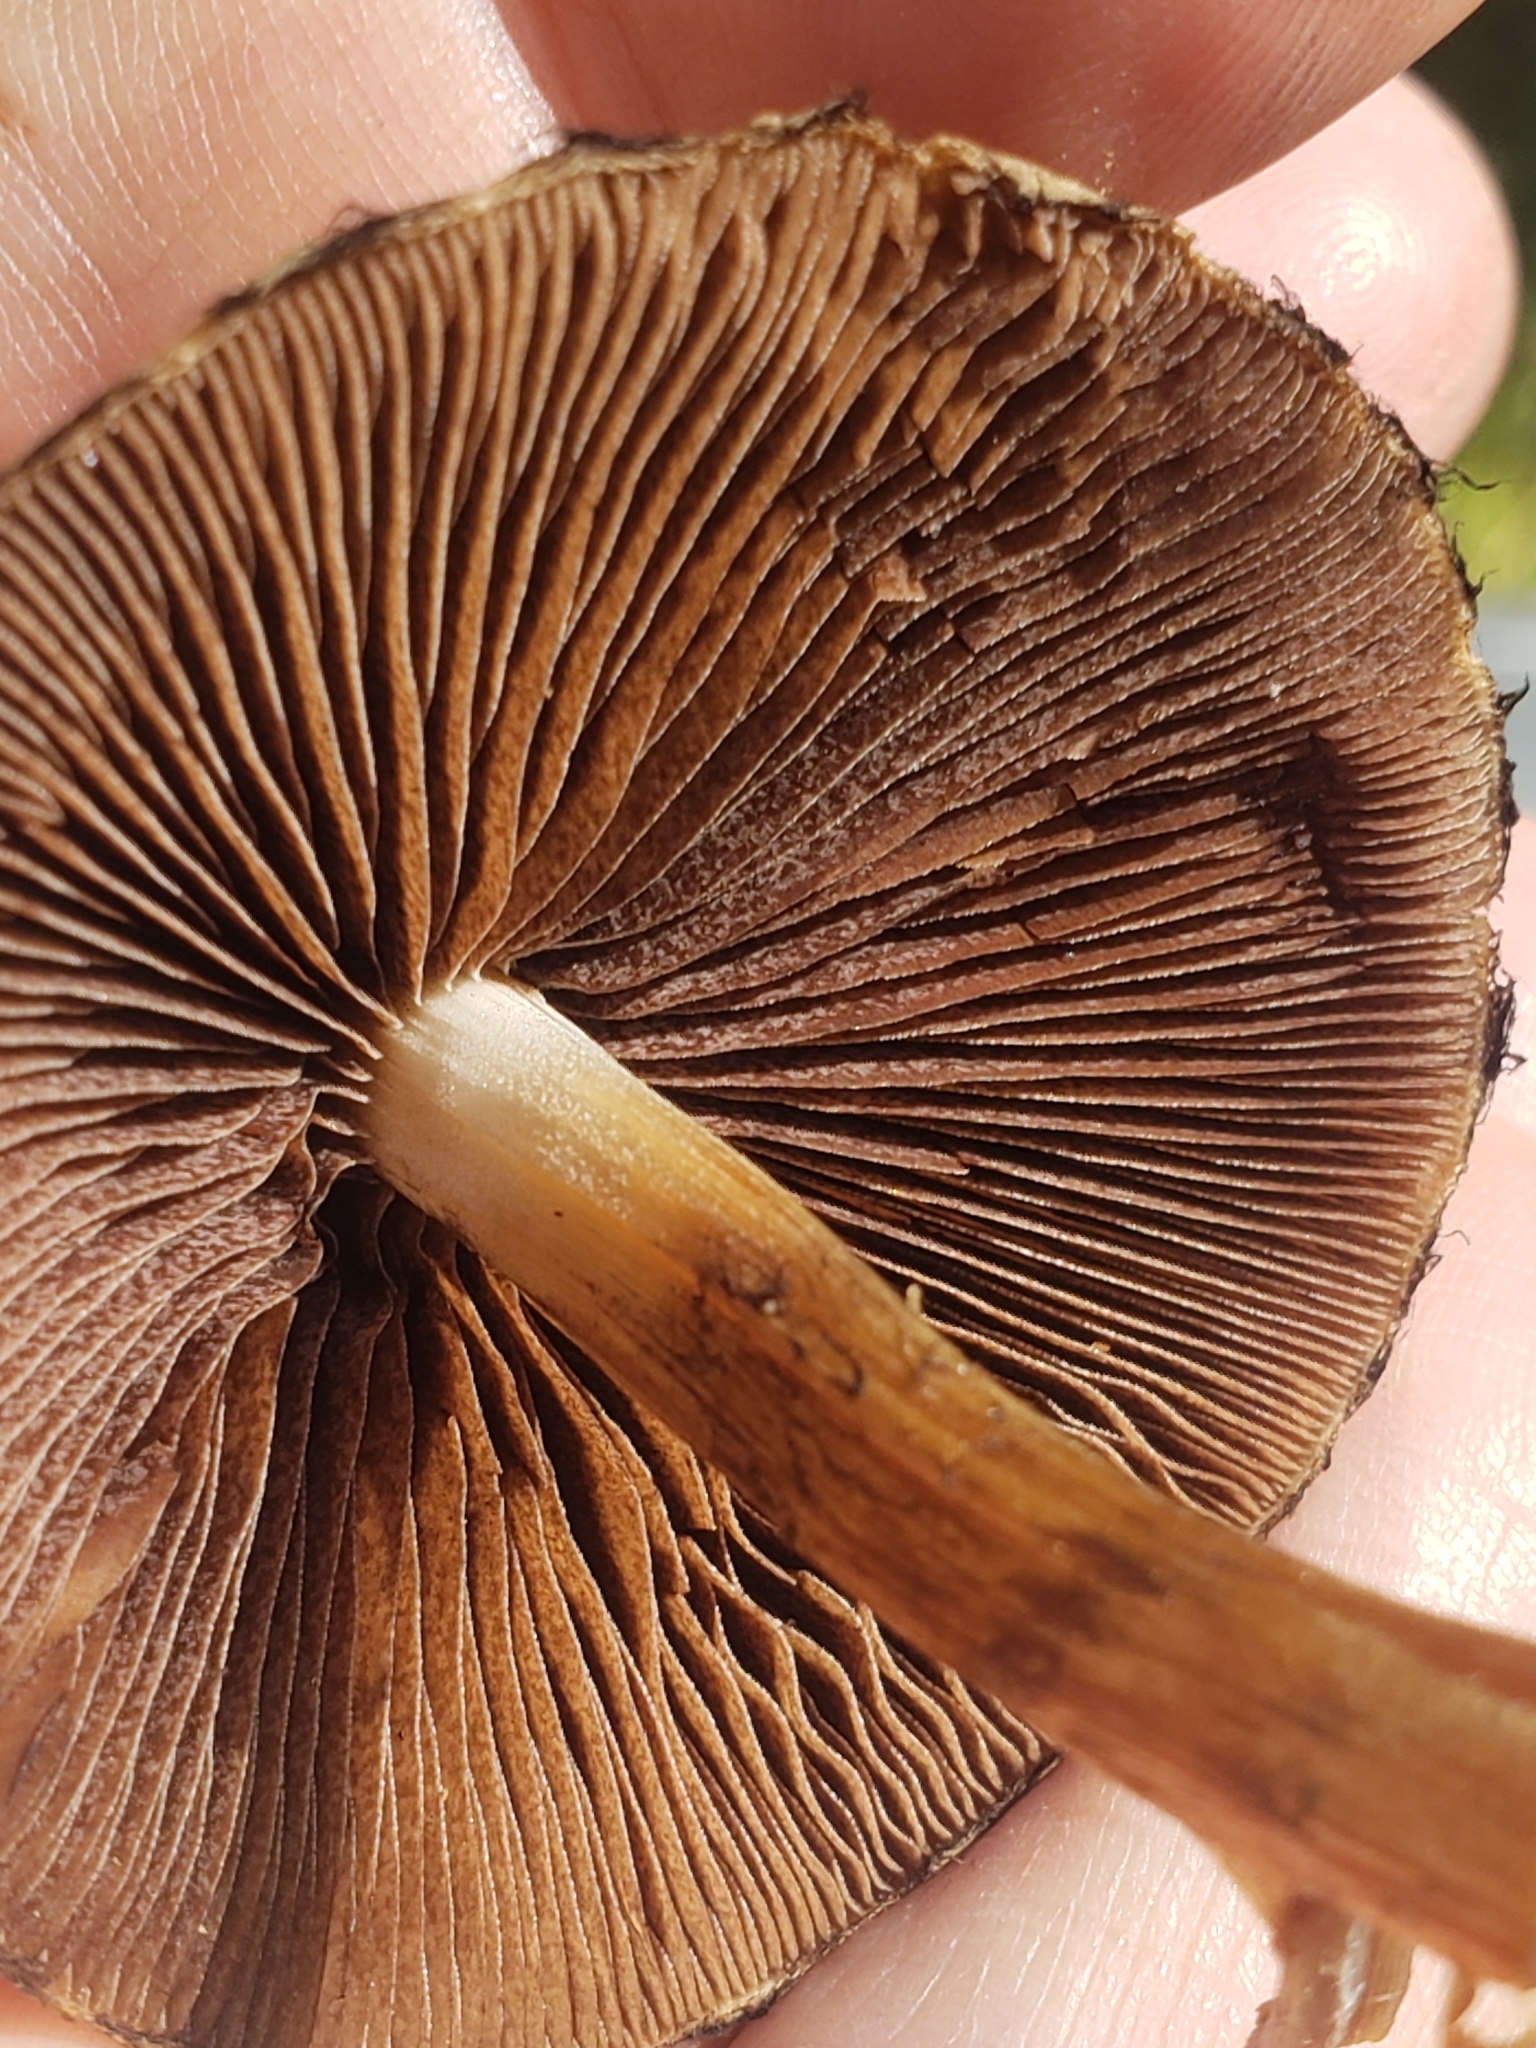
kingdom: Fungi
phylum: Basidiomycota
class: Agaricomycetes
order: Agaricales
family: Psathyrellaceae
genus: Lacrymaria
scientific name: Lacrymaria lacrymabunda
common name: Weeping widow
